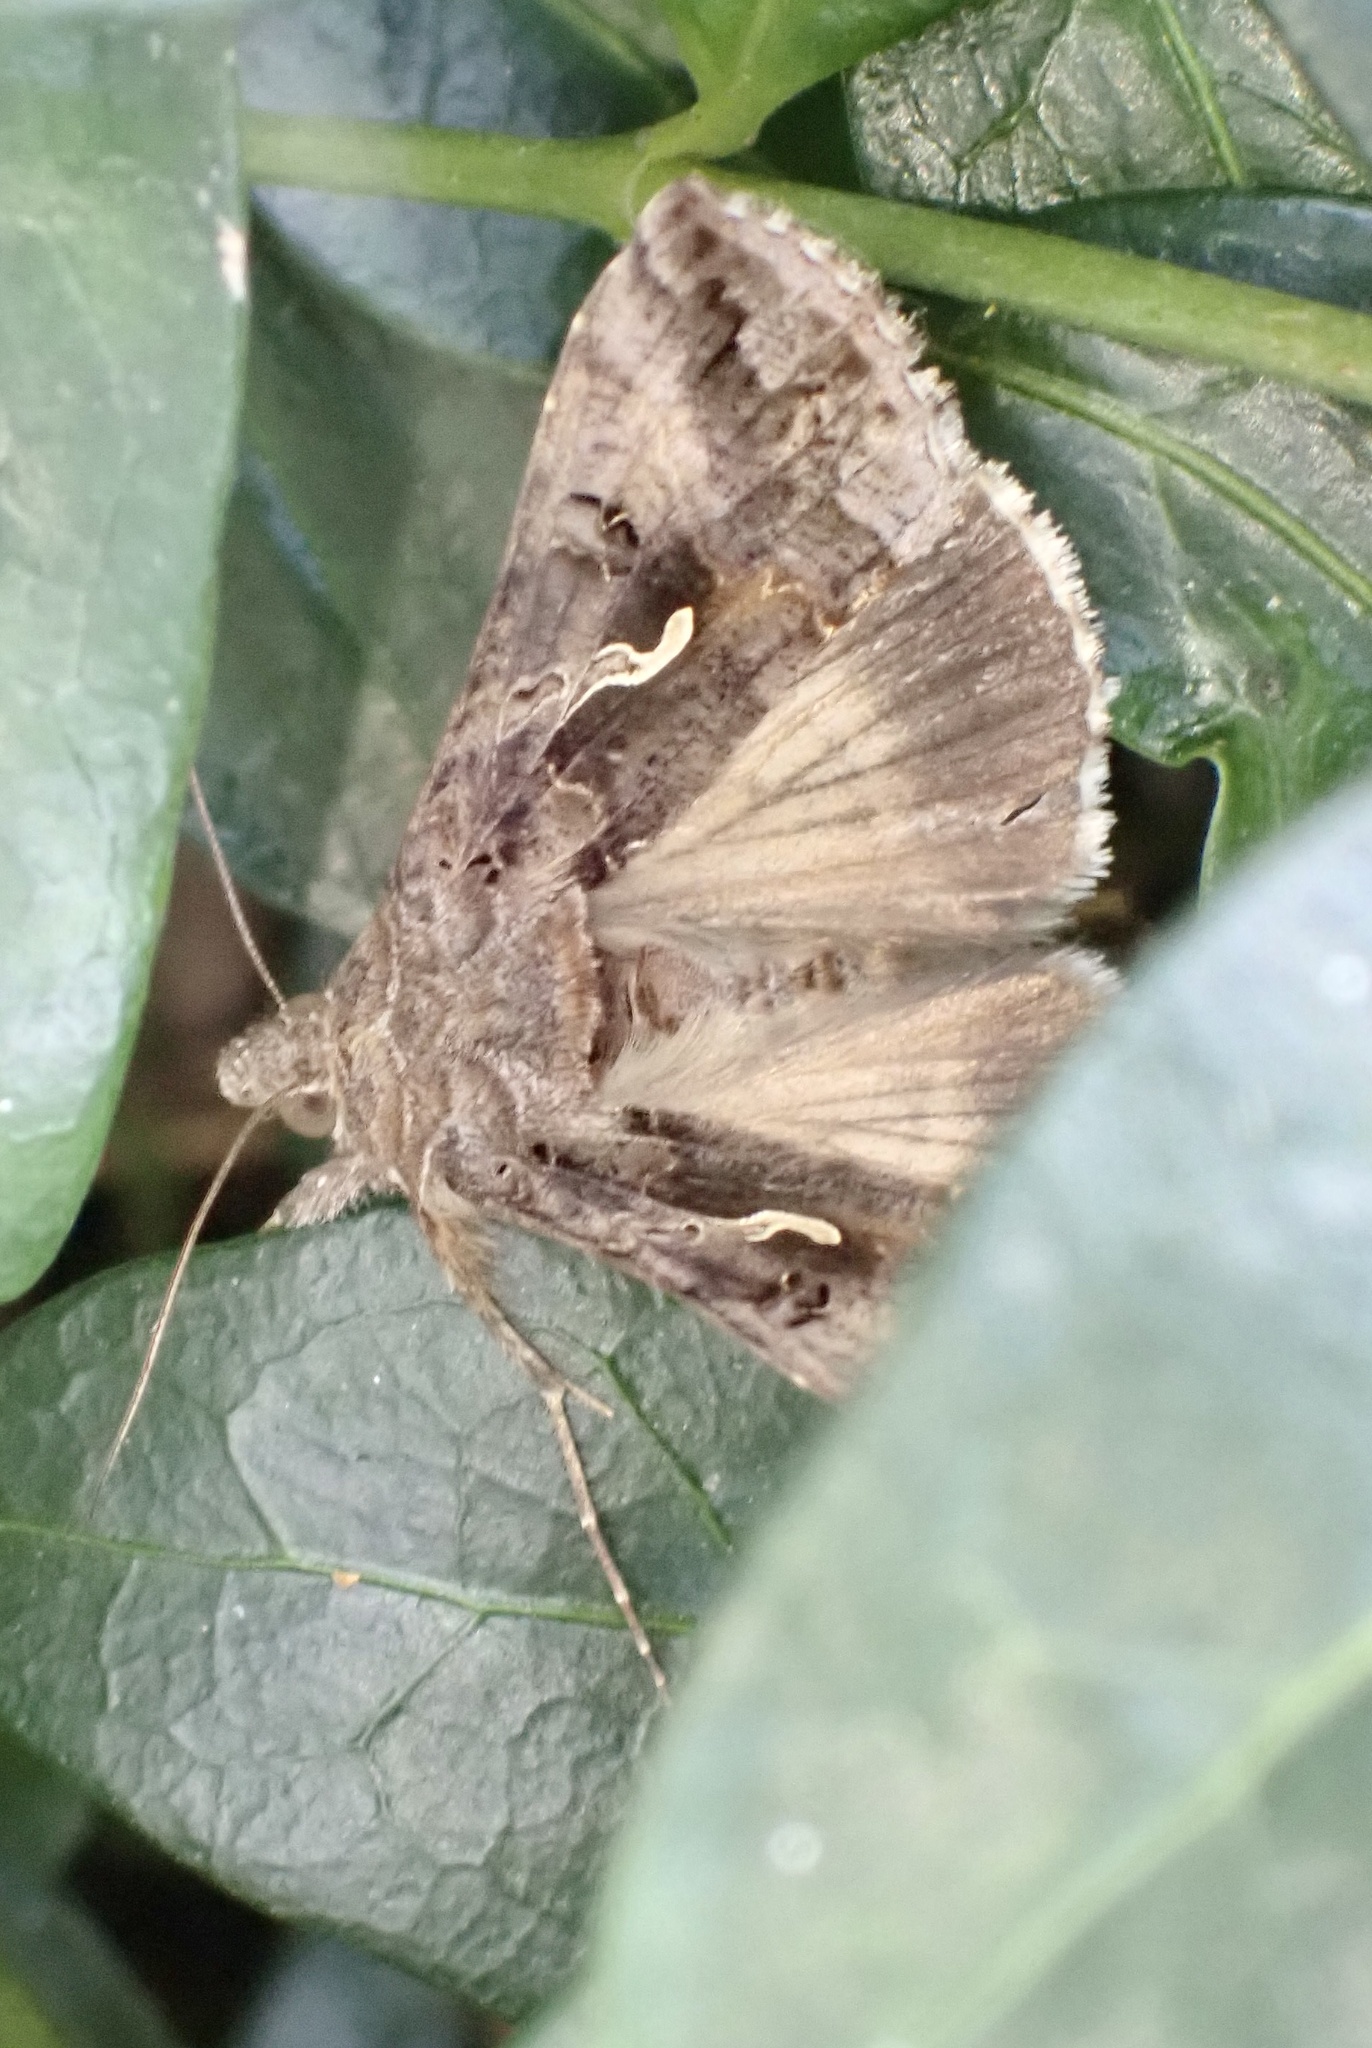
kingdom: Animalia
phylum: Arthropoda
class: Insecta
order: Lepidoptera
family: Noctuidae
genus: Autographa
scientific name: Autographa gamma
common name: Silver y
